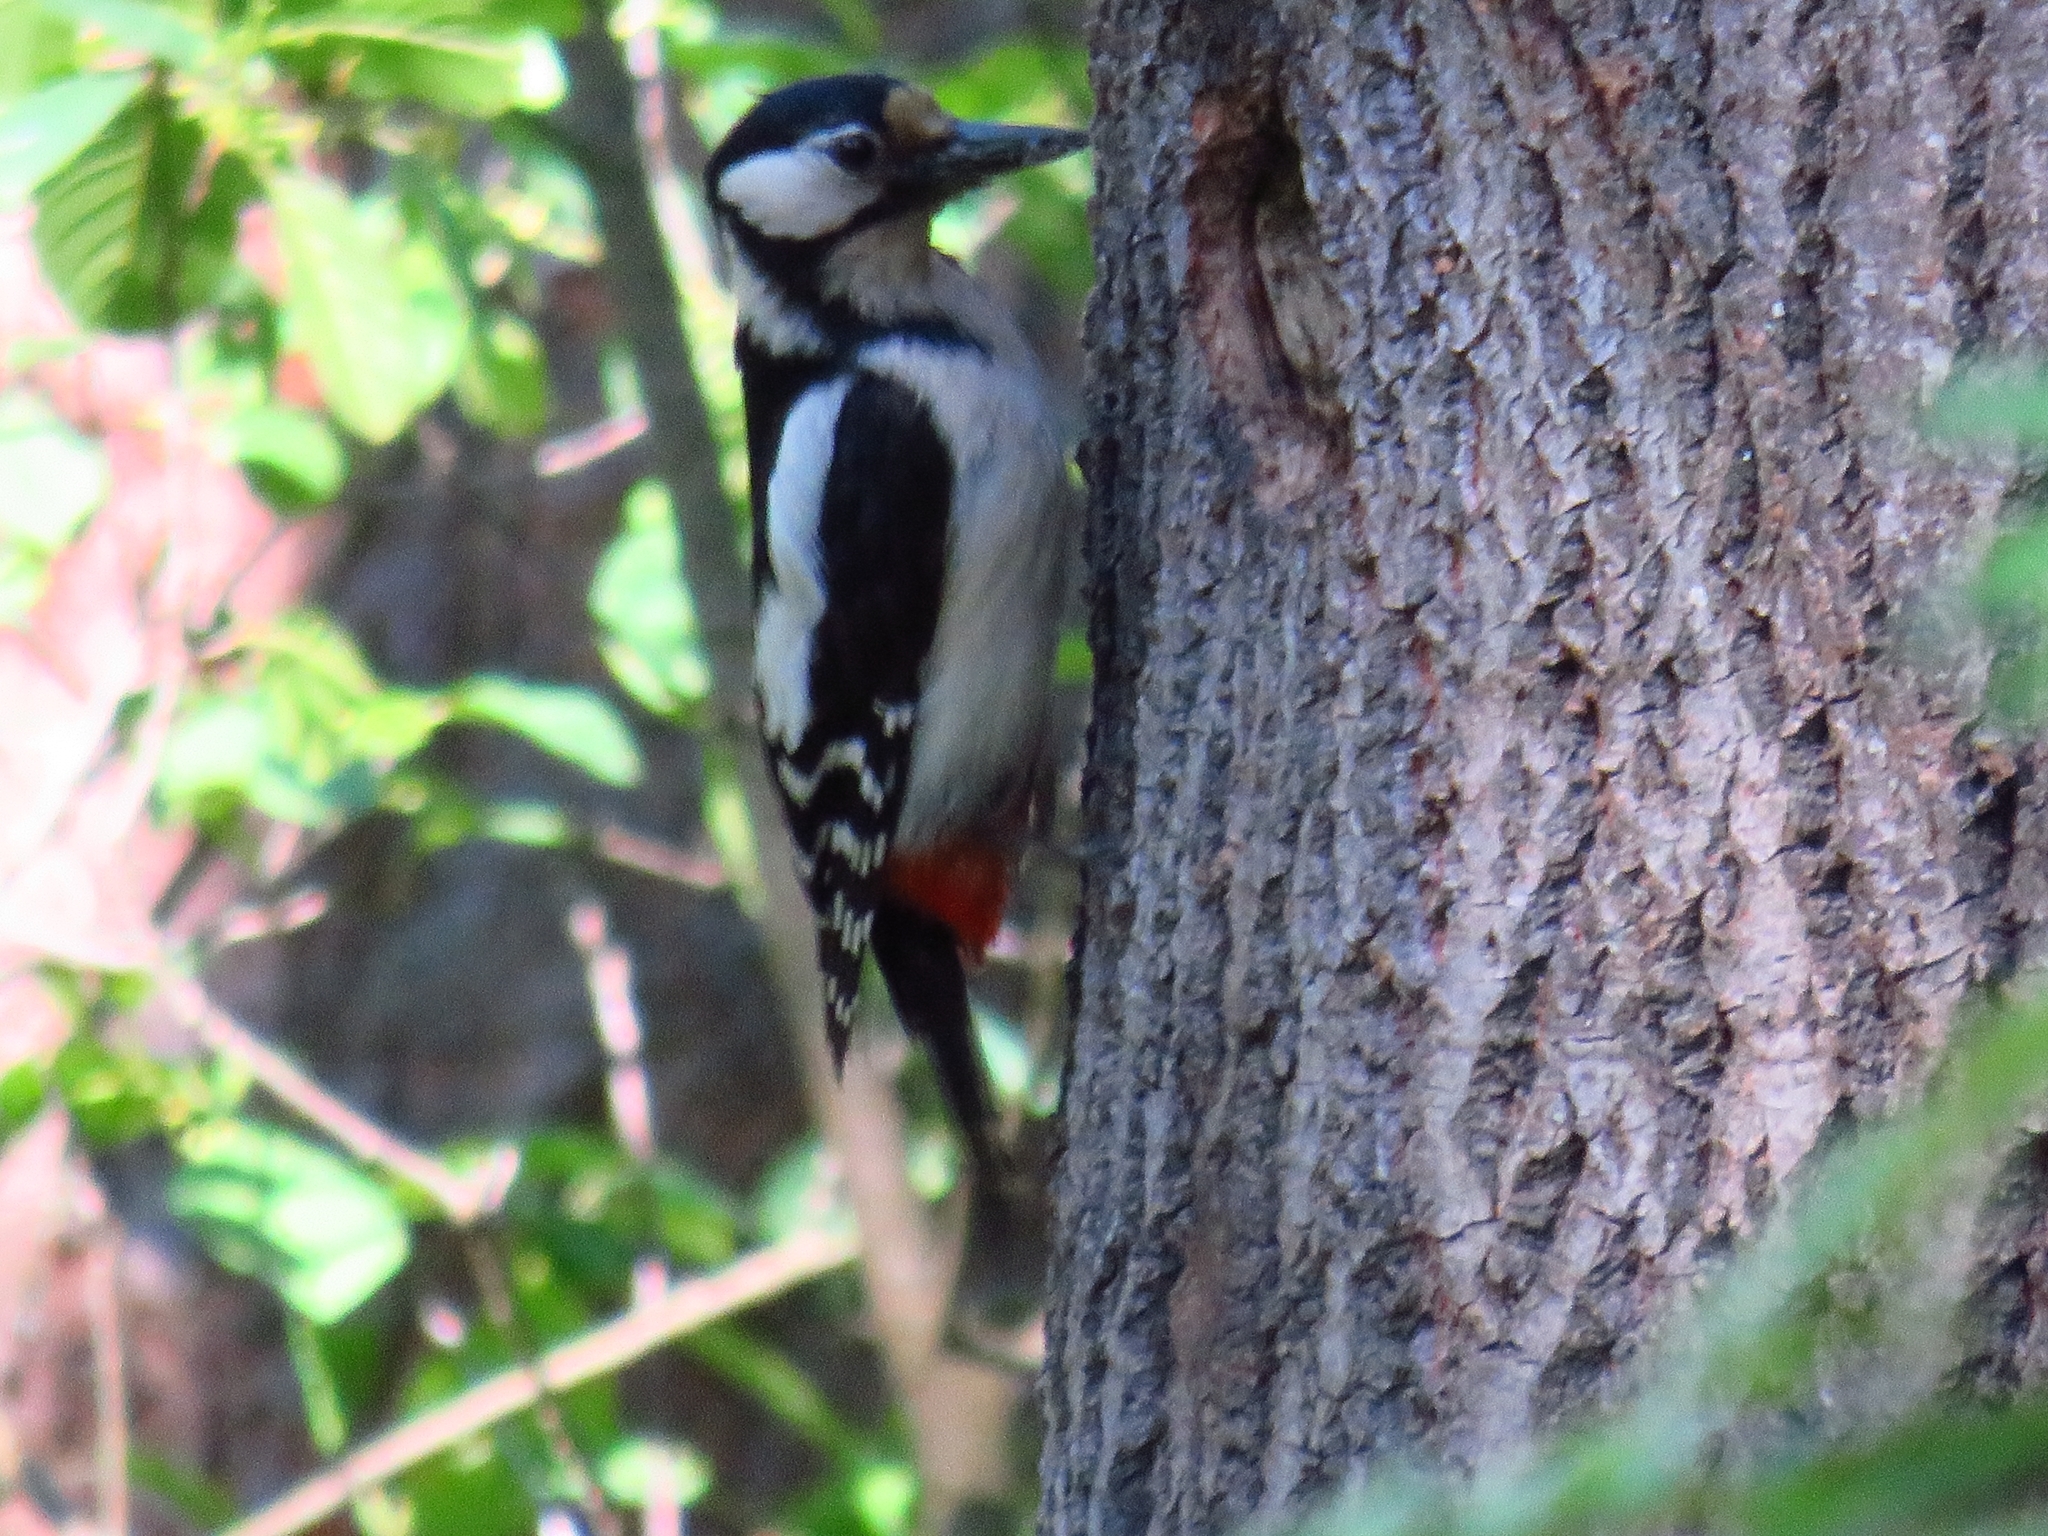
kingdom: Animalia
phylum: Chordata
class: Aves
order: Piciformes
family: Picidae
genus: Dendrocopos
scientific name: Dendrocopos major
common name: Great spotted woodpecker
